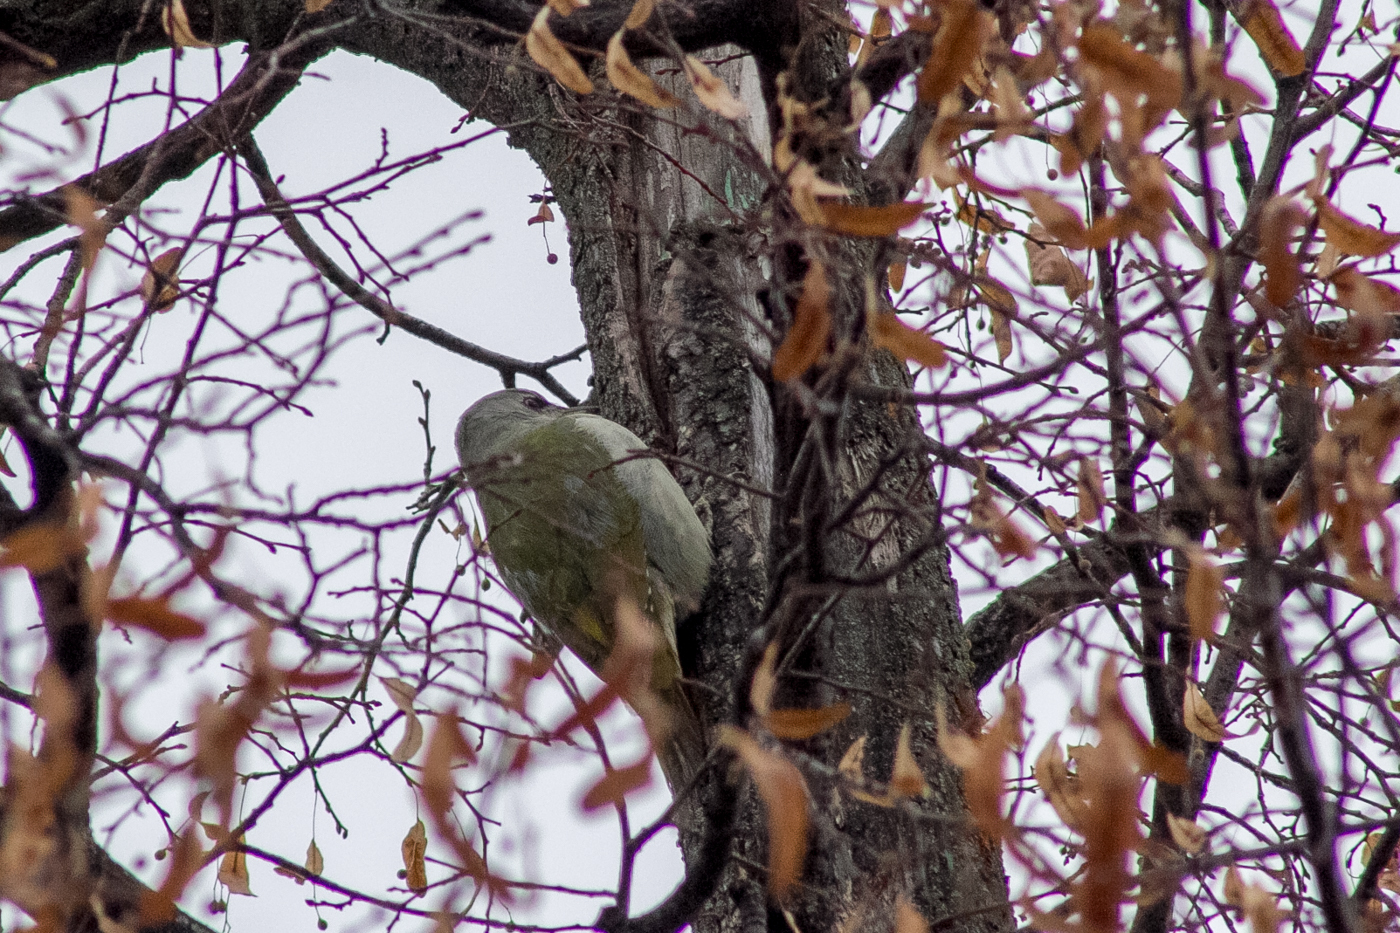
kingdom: Animalia
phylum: Chordata
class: Aves
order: Piciformes
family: Picidae
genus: Picus
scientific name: Picus canus
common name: Grey-headed woodpecker
